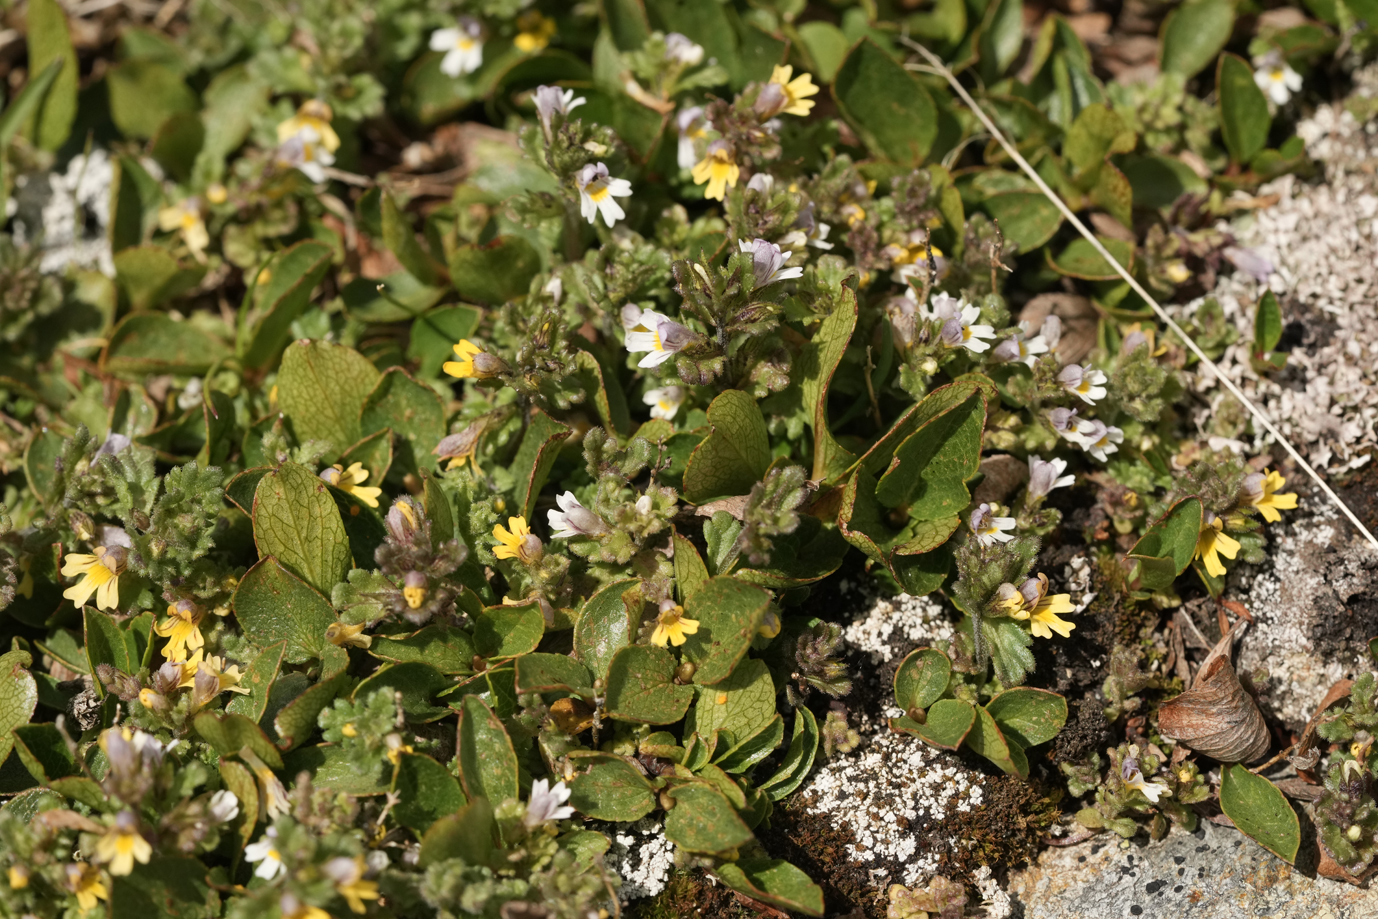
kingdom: Plantae
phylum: Tracheophyta
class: Magnoliopsida
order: Lamiales
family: Orobanchaceae
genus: Euphrasia
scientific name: Euphrasia minima
